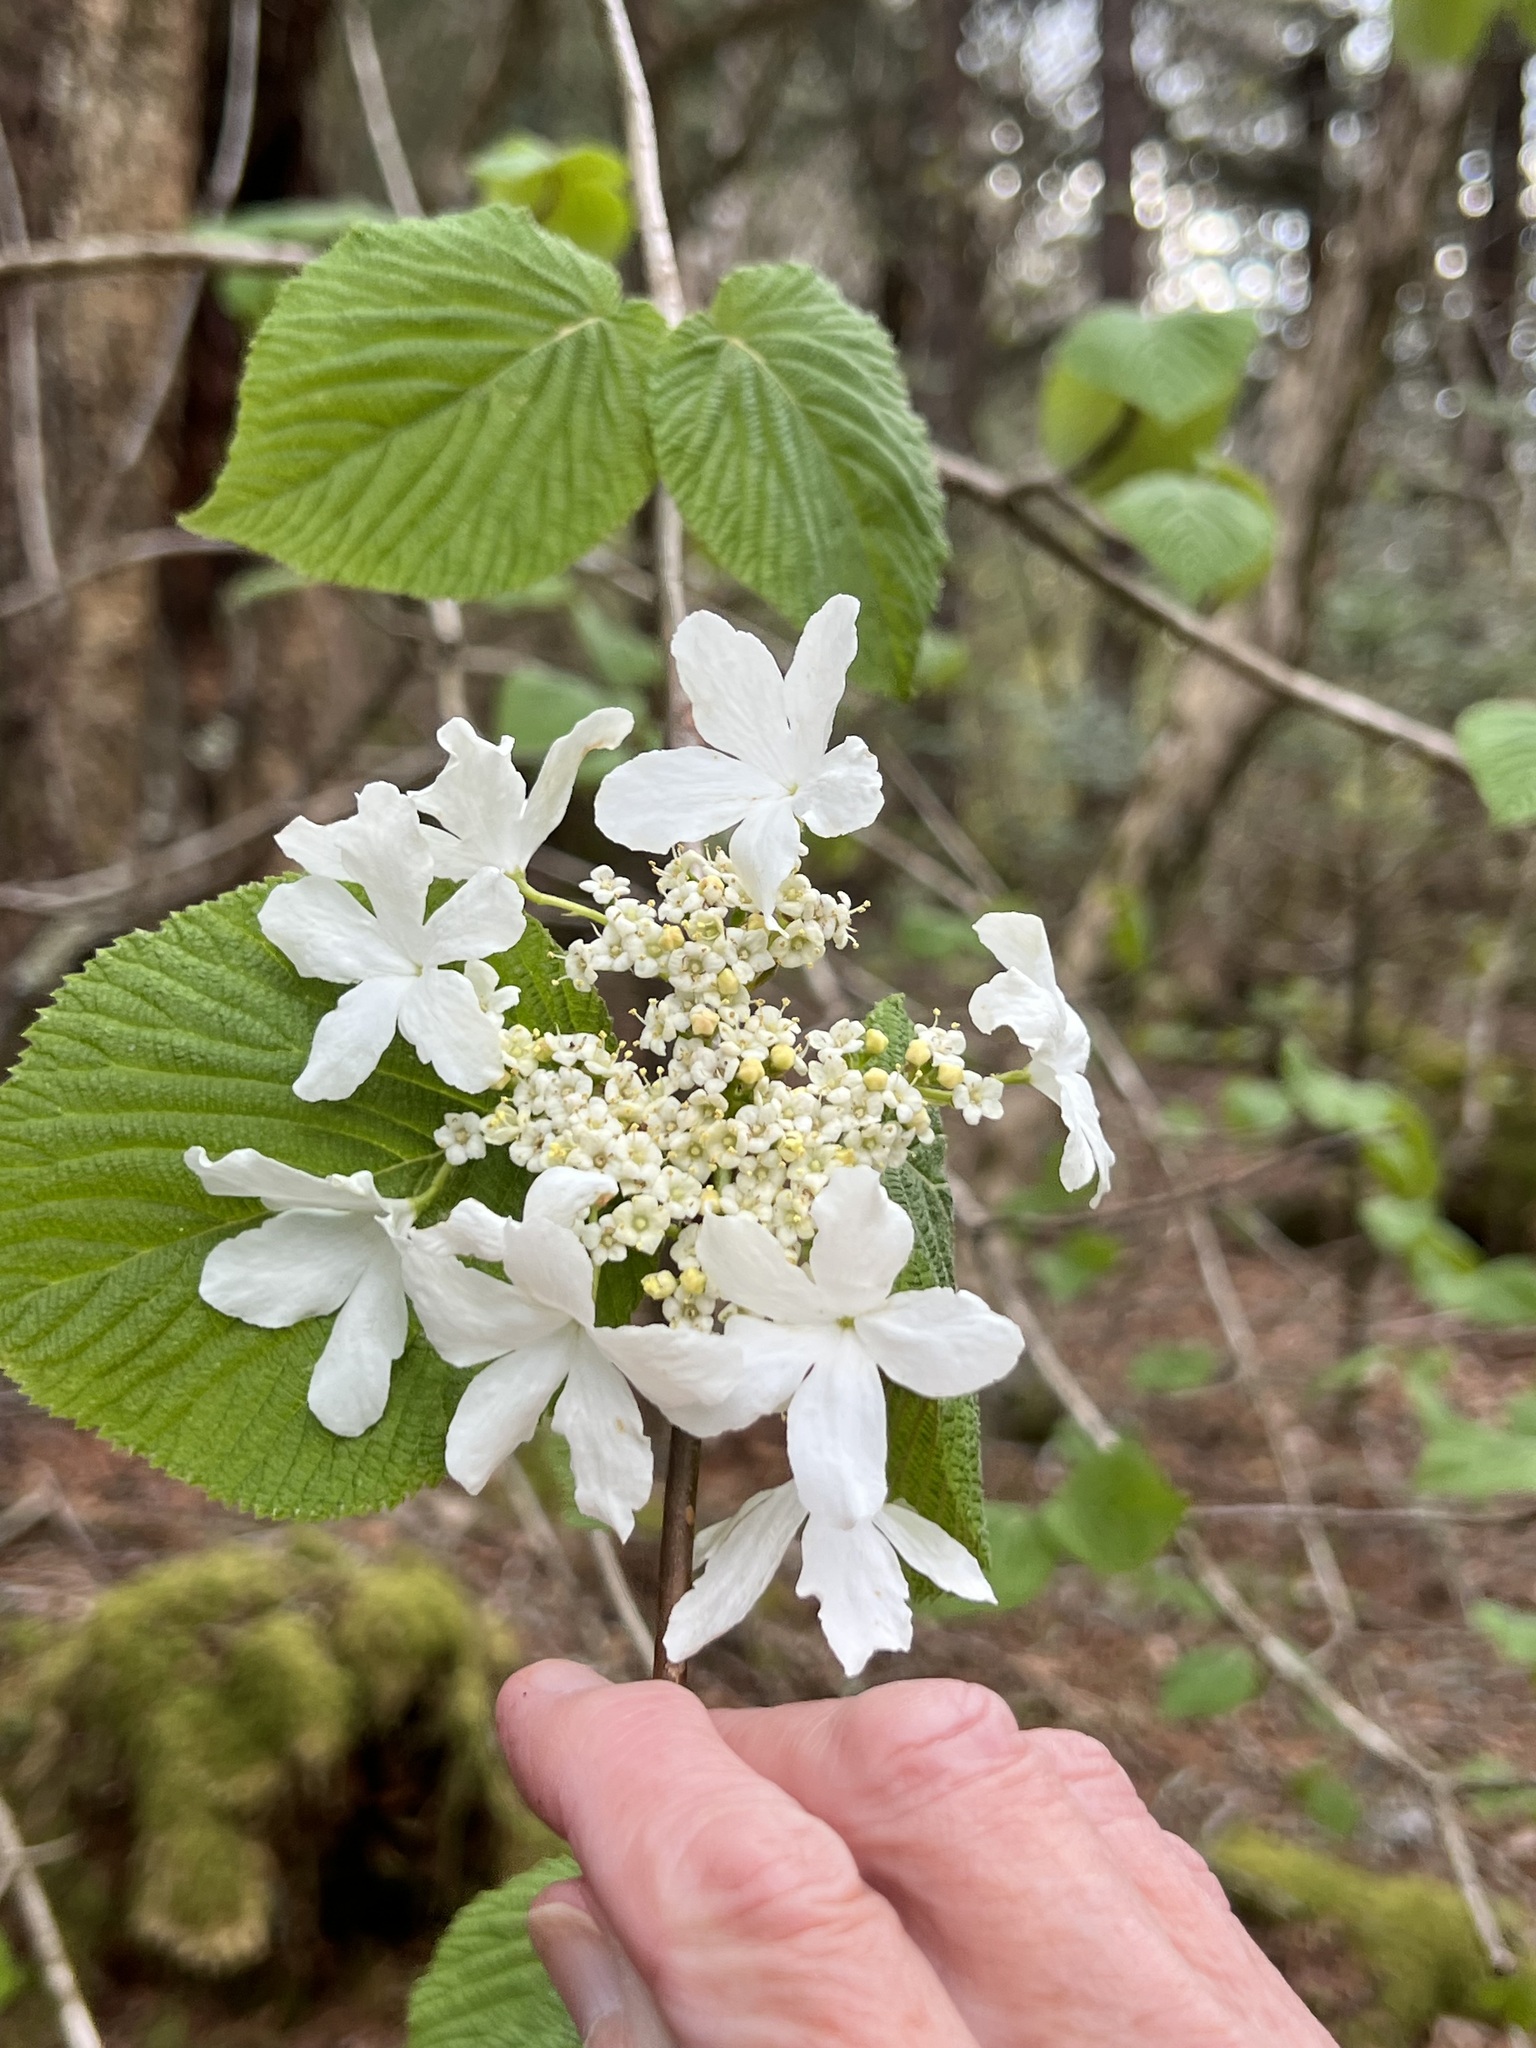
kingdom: Plantae
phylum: Tracheophyta
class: Magnoliopsida
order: Dipsacales
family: Viburnaceae
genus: Viburnum
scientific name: Viburnum lantanoides
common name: Hobblebush
